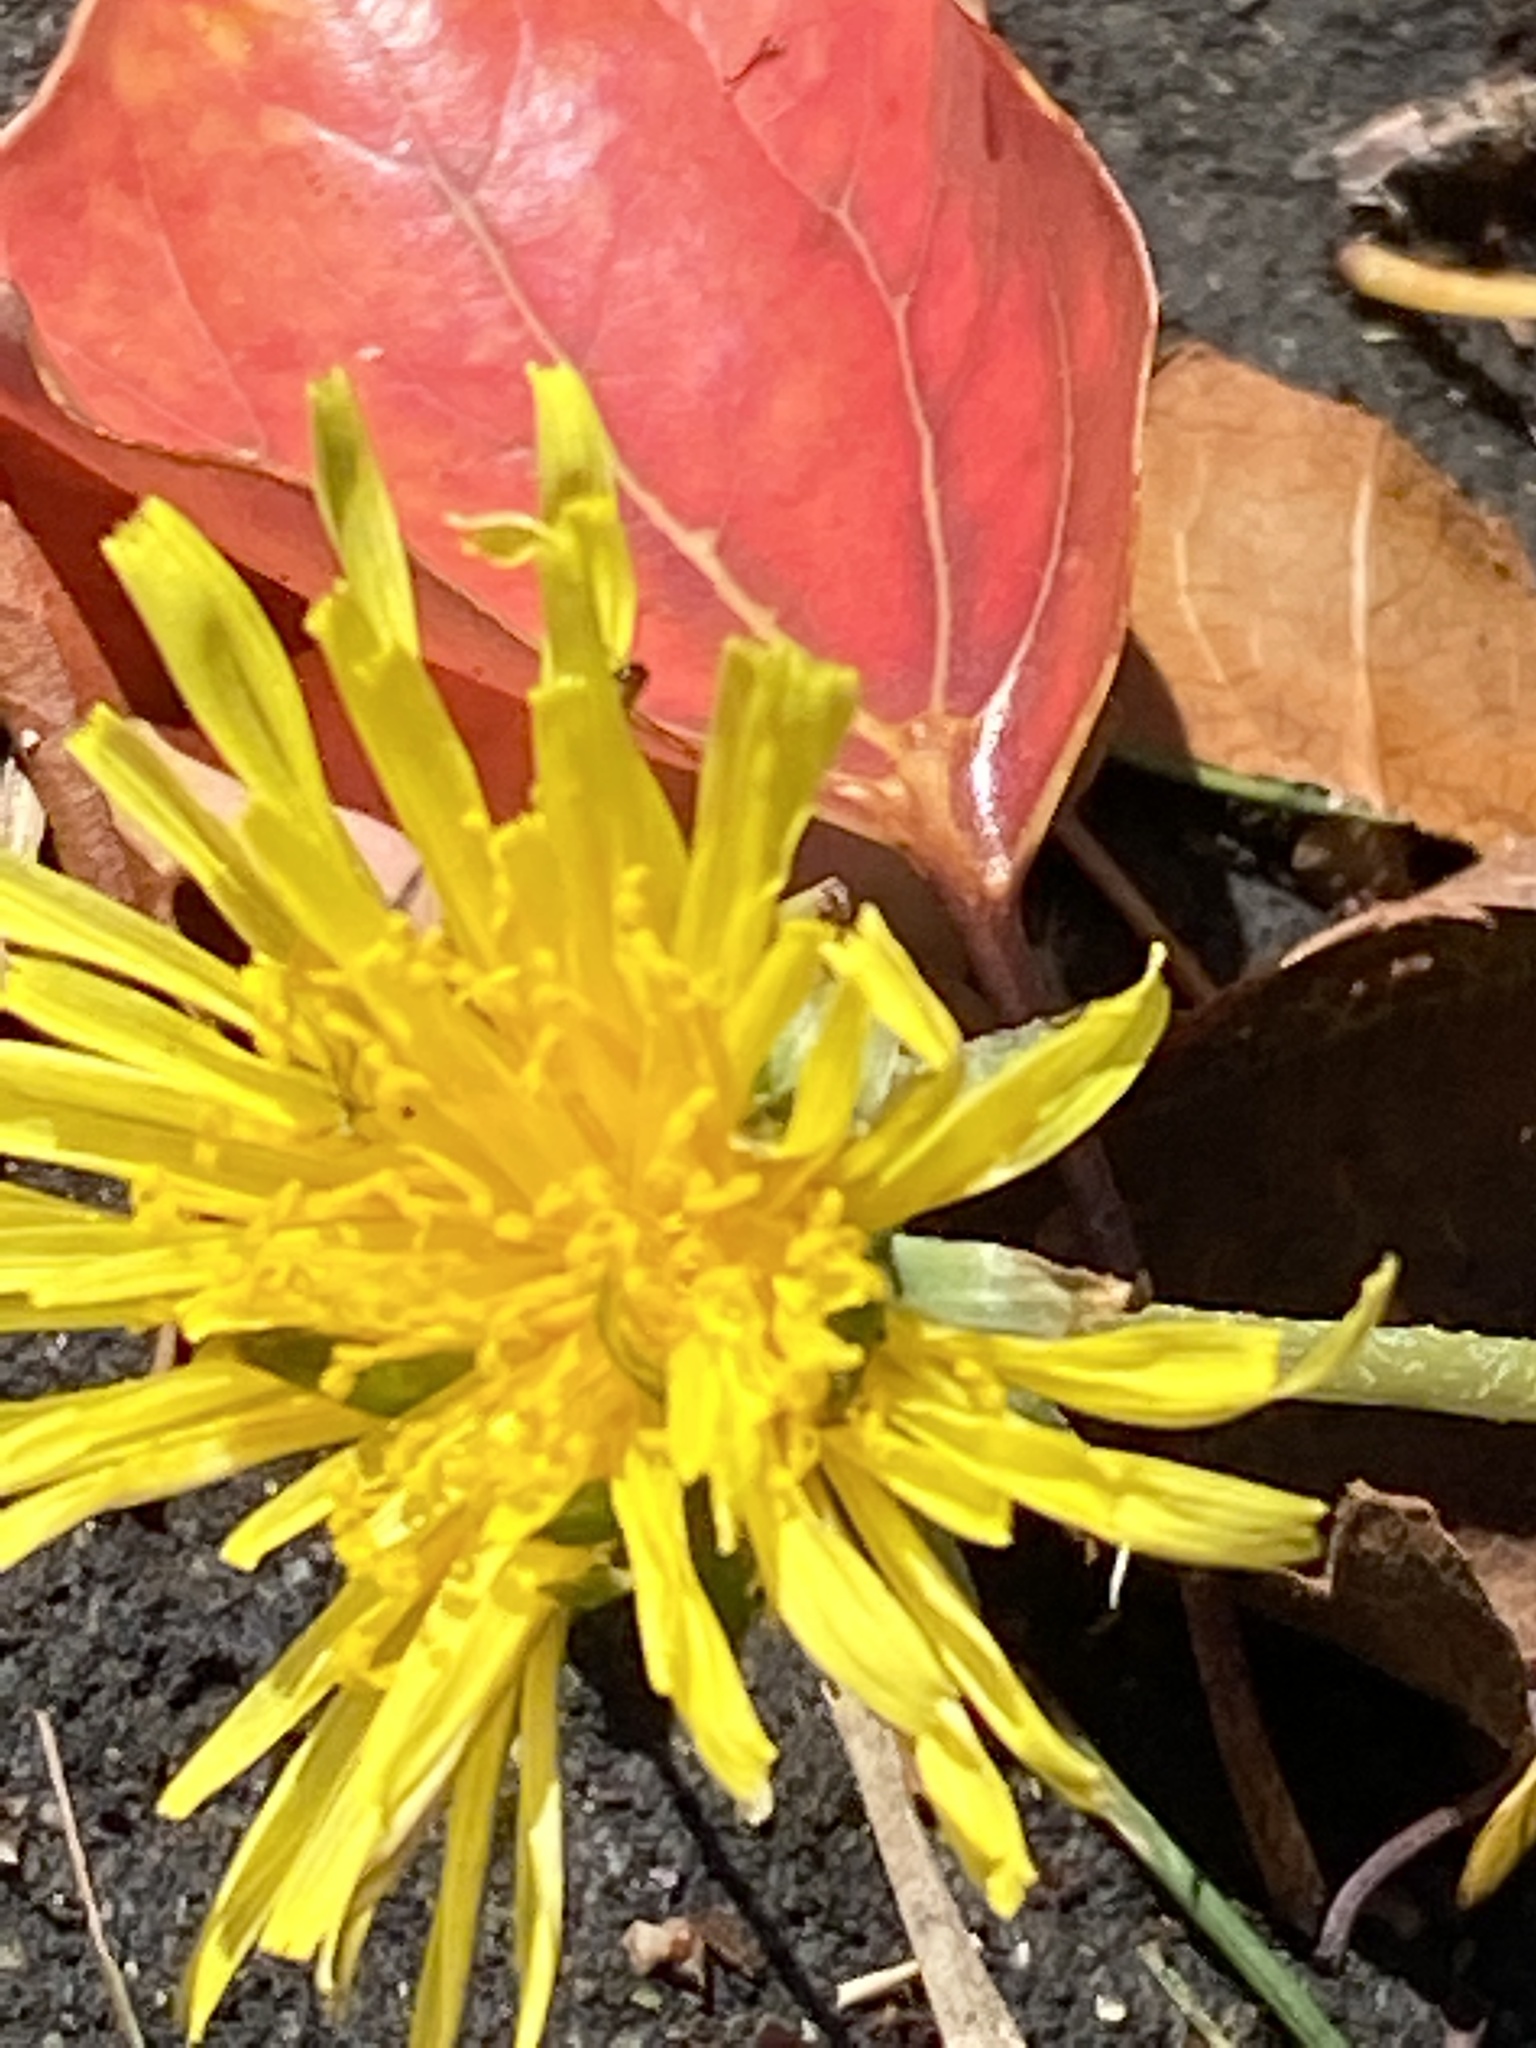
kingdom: Plantae
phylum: Tracheophyta
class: Magnoliopsida
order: Asterales
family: Asteraceae
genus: Taraxacum
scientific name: Taraxacum officinale
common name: Common dandelion
